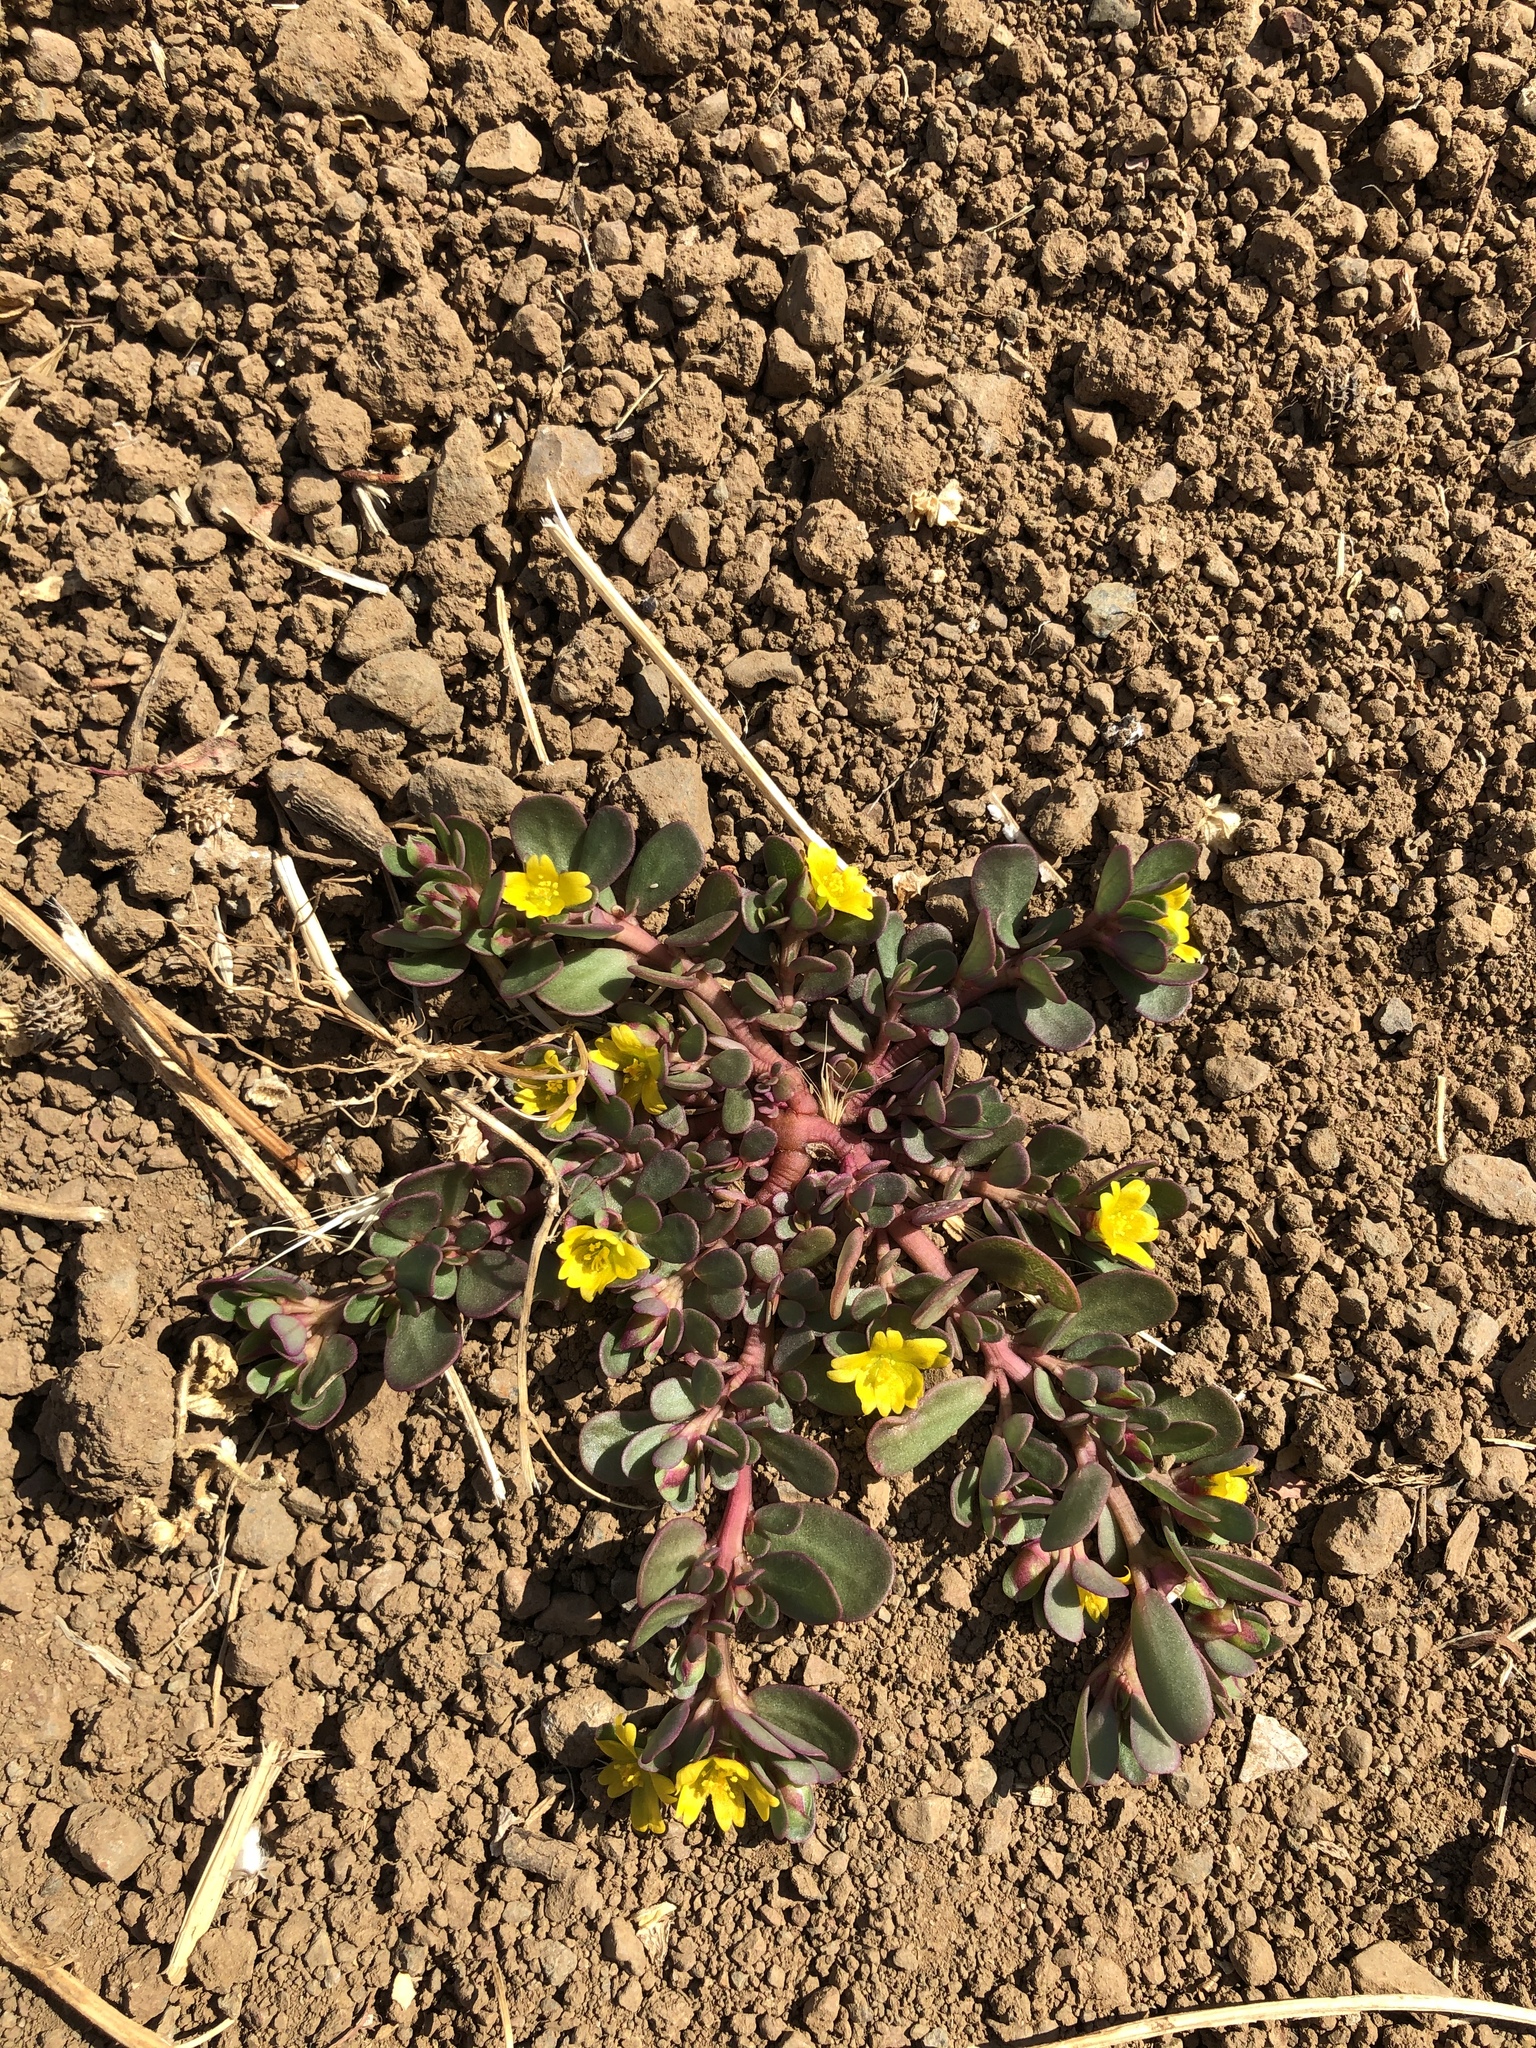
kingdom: Plantae
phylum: Tracheophyta
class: Magnoliopsida
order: Caryophyllales
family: Portulacaceae
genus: Portulaca
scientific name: Portulaca oleracea
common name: Common purslane
